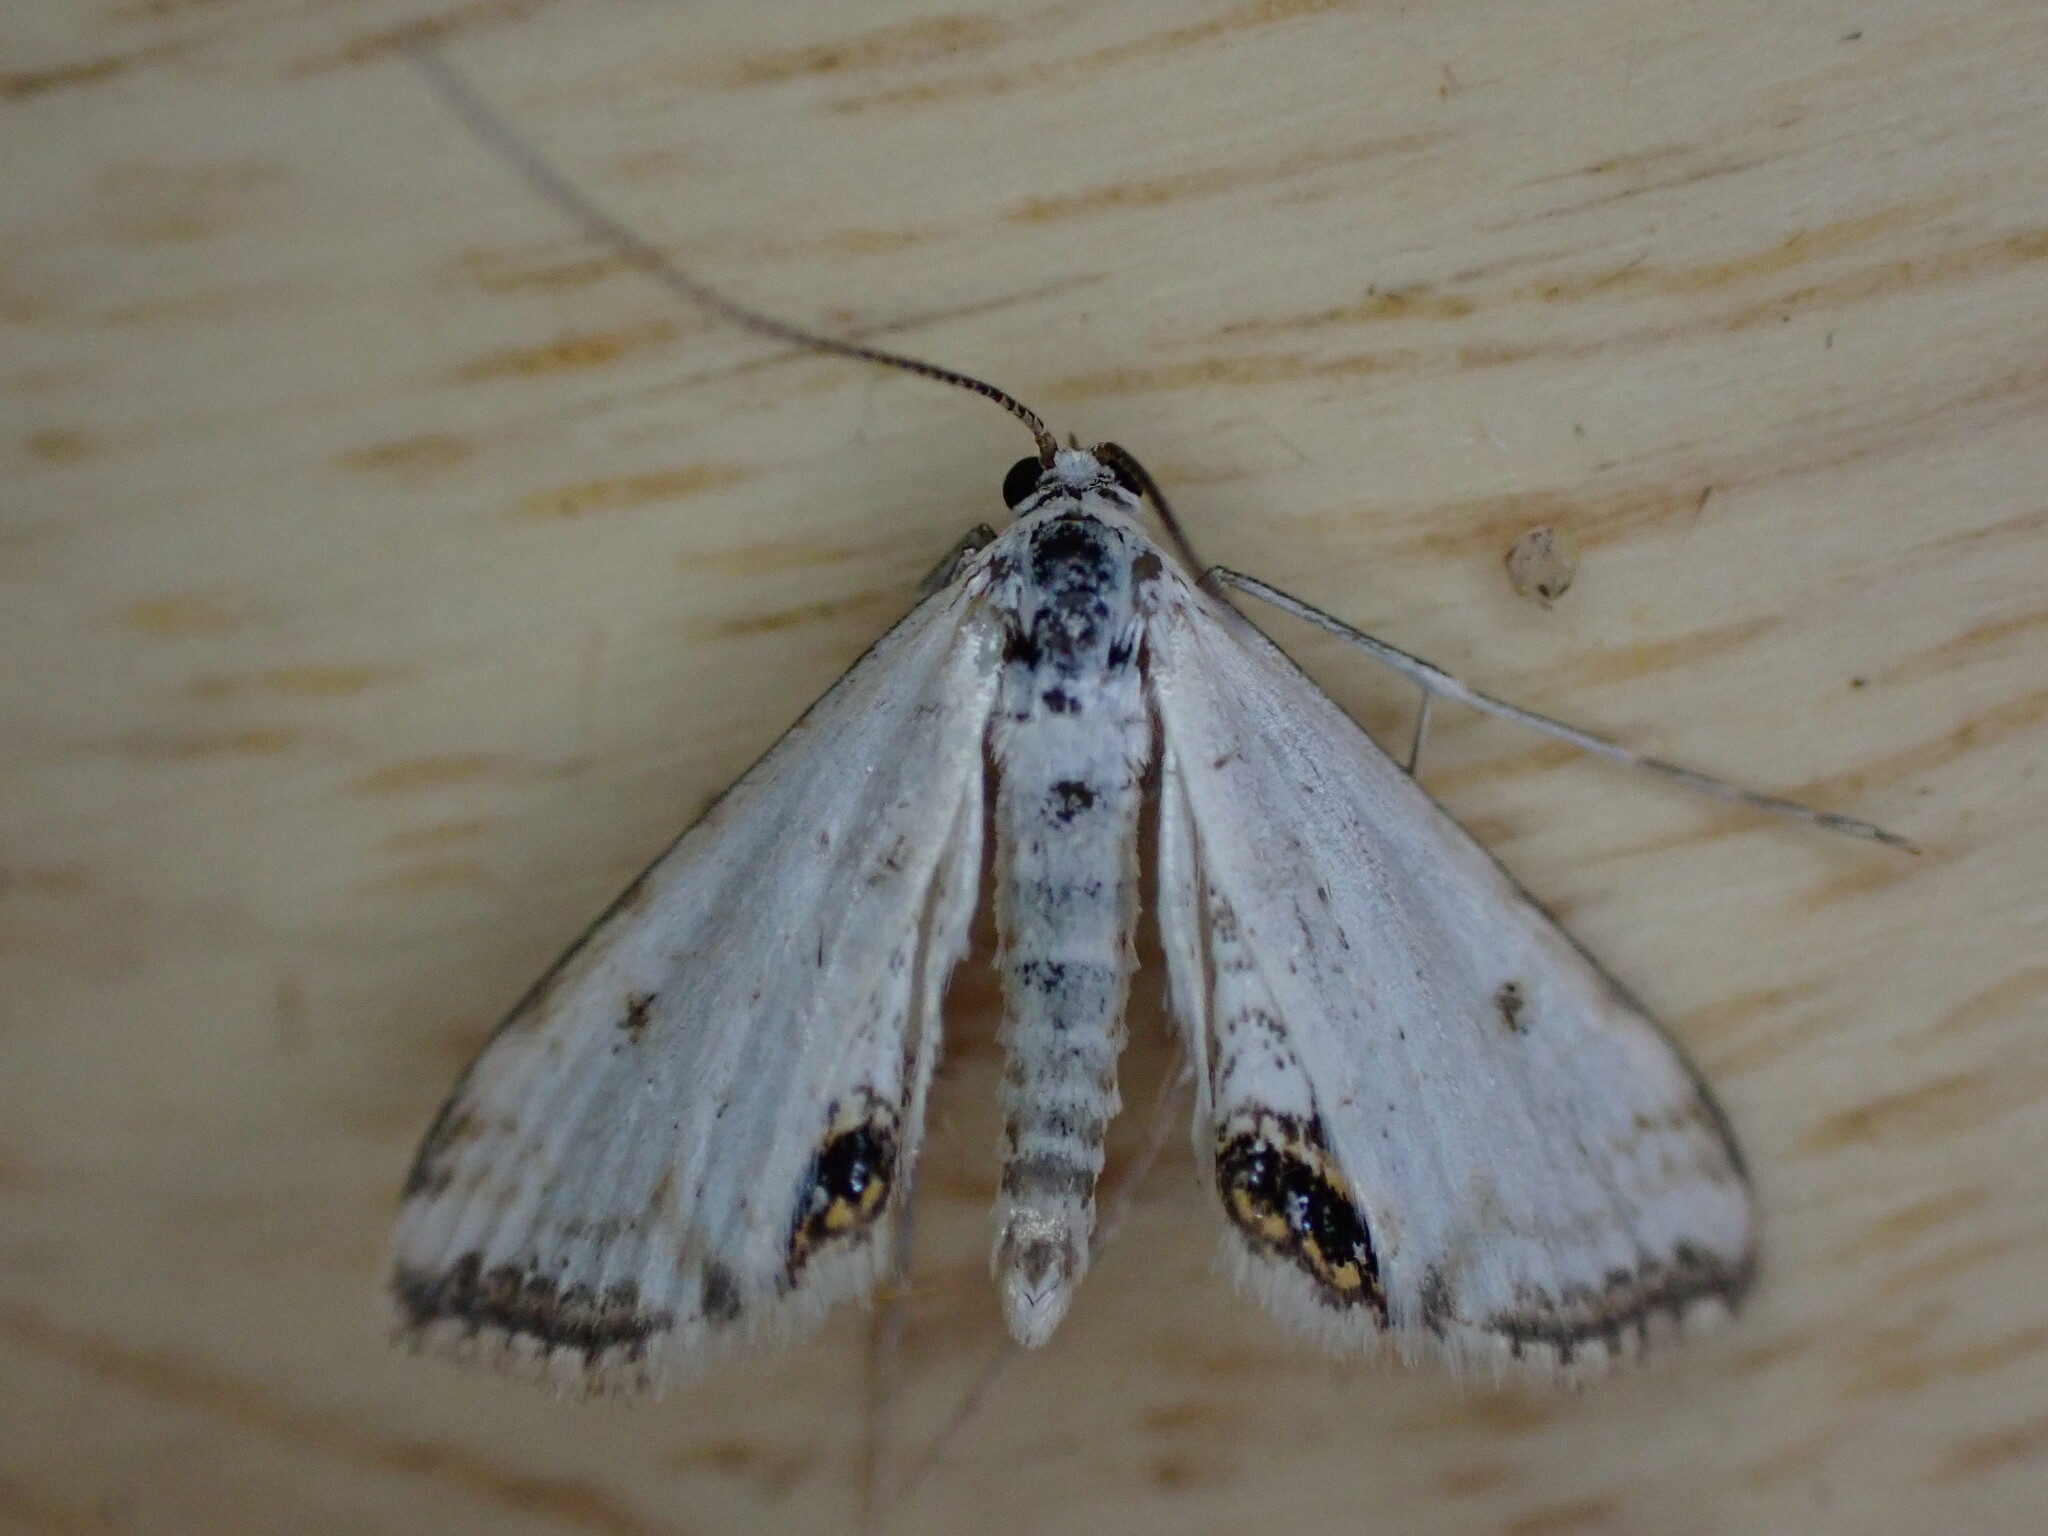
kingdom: Animalia
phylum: Arthropoda
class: Insecta
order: Lepidoptera
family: Crambidae
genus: Cataclysta
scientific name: Cataclysta lemnata
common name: Small china-mark
